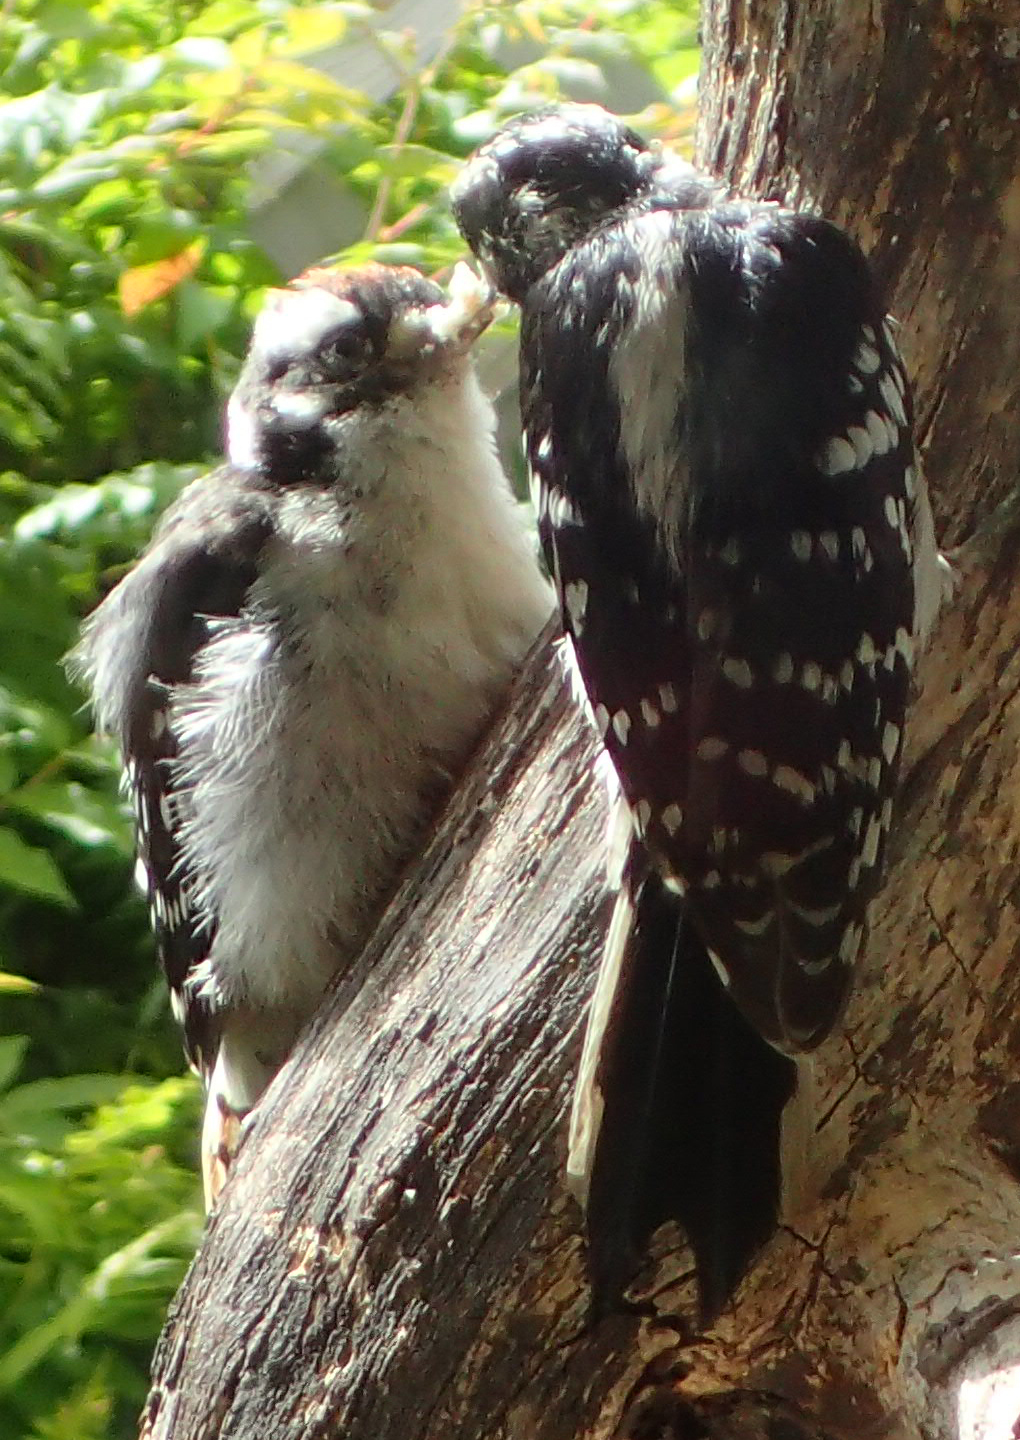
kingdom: Animalia
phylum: Chordata
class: Aves
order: Piciformes
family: Picidae
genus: Dryobates
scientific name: Dryobates pubescens
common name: Downy woodpecker
